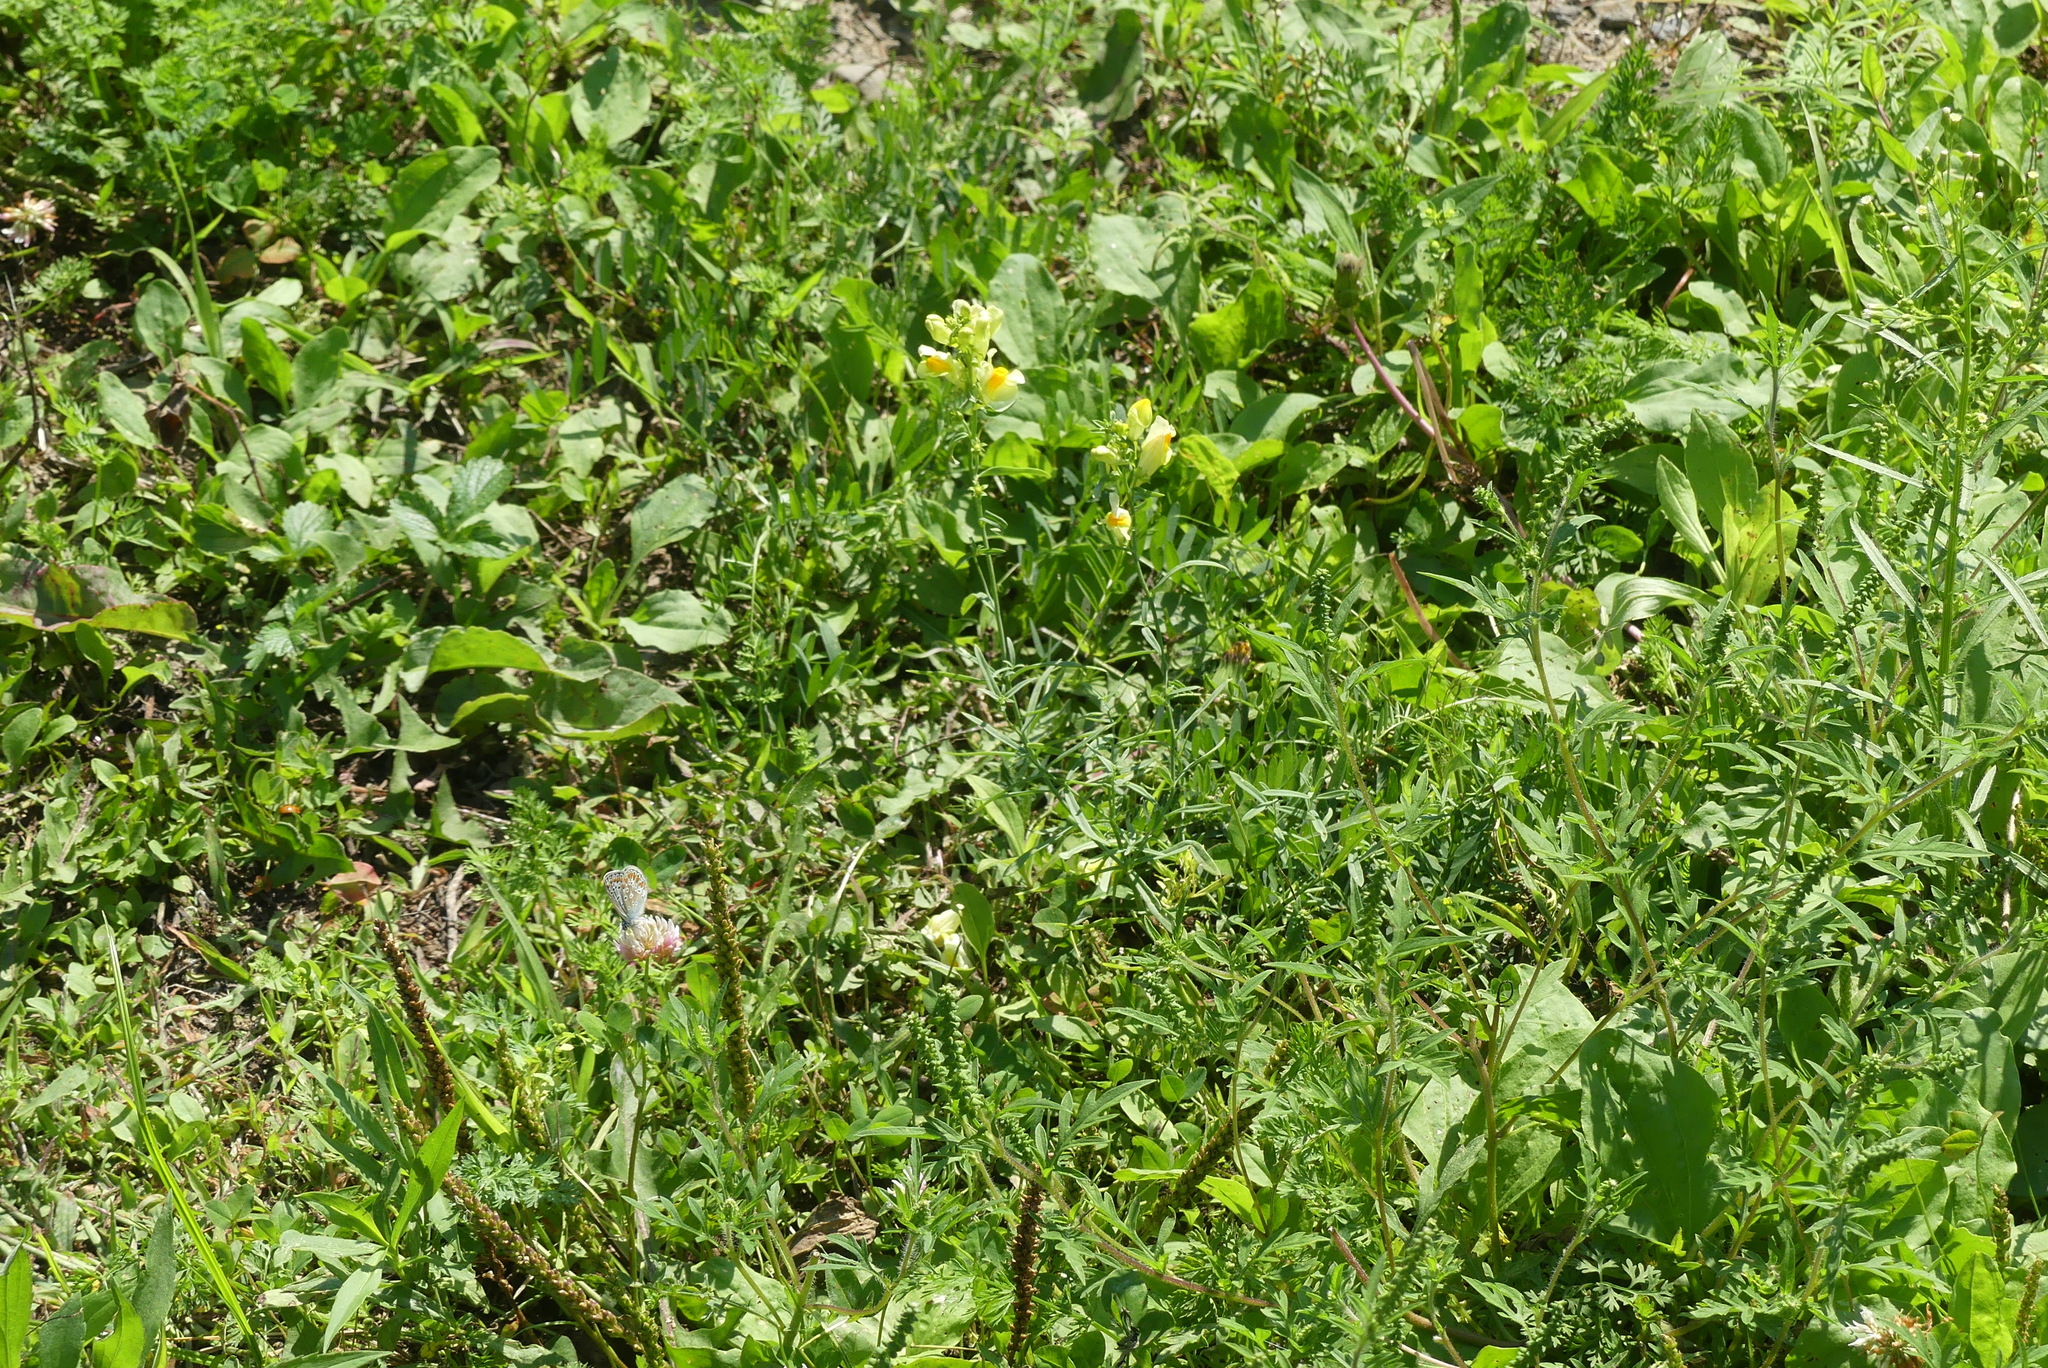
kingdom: Plantae
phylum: Tracheophyta
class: Magnoliopsida
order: Lamiales
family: Plantaginaceae
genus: Linaria
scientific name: Linaria vulgaris
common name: Butter and eggs
